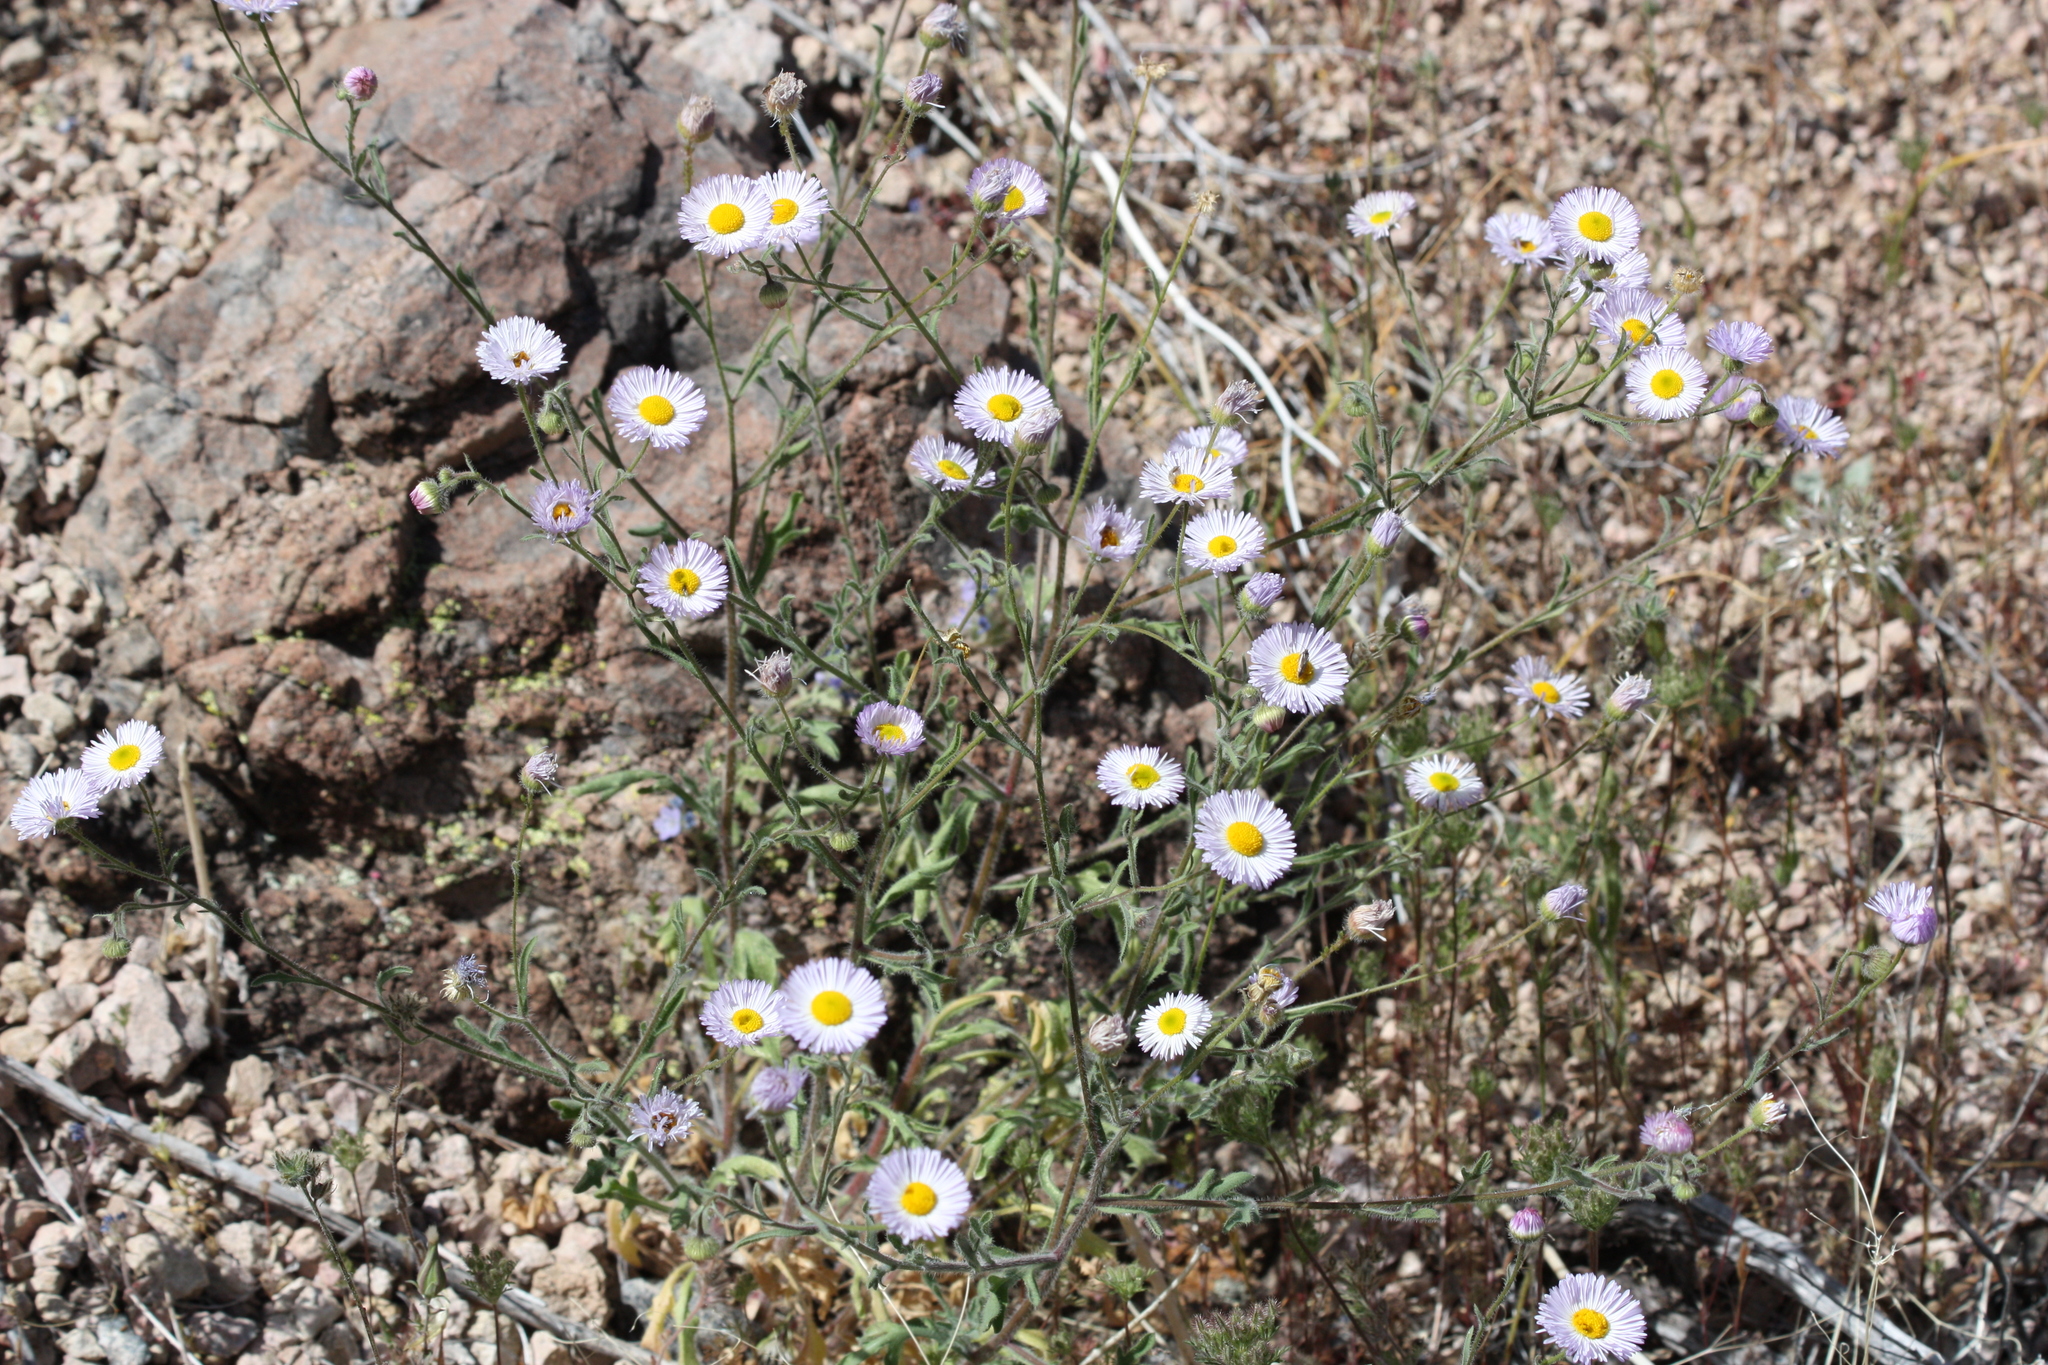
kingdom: Plantae
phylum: Tracheophyta
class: Magnoliopsida
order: Asterales
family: Asteraceae
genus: Erigeron
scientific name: Erigeron lobatus
